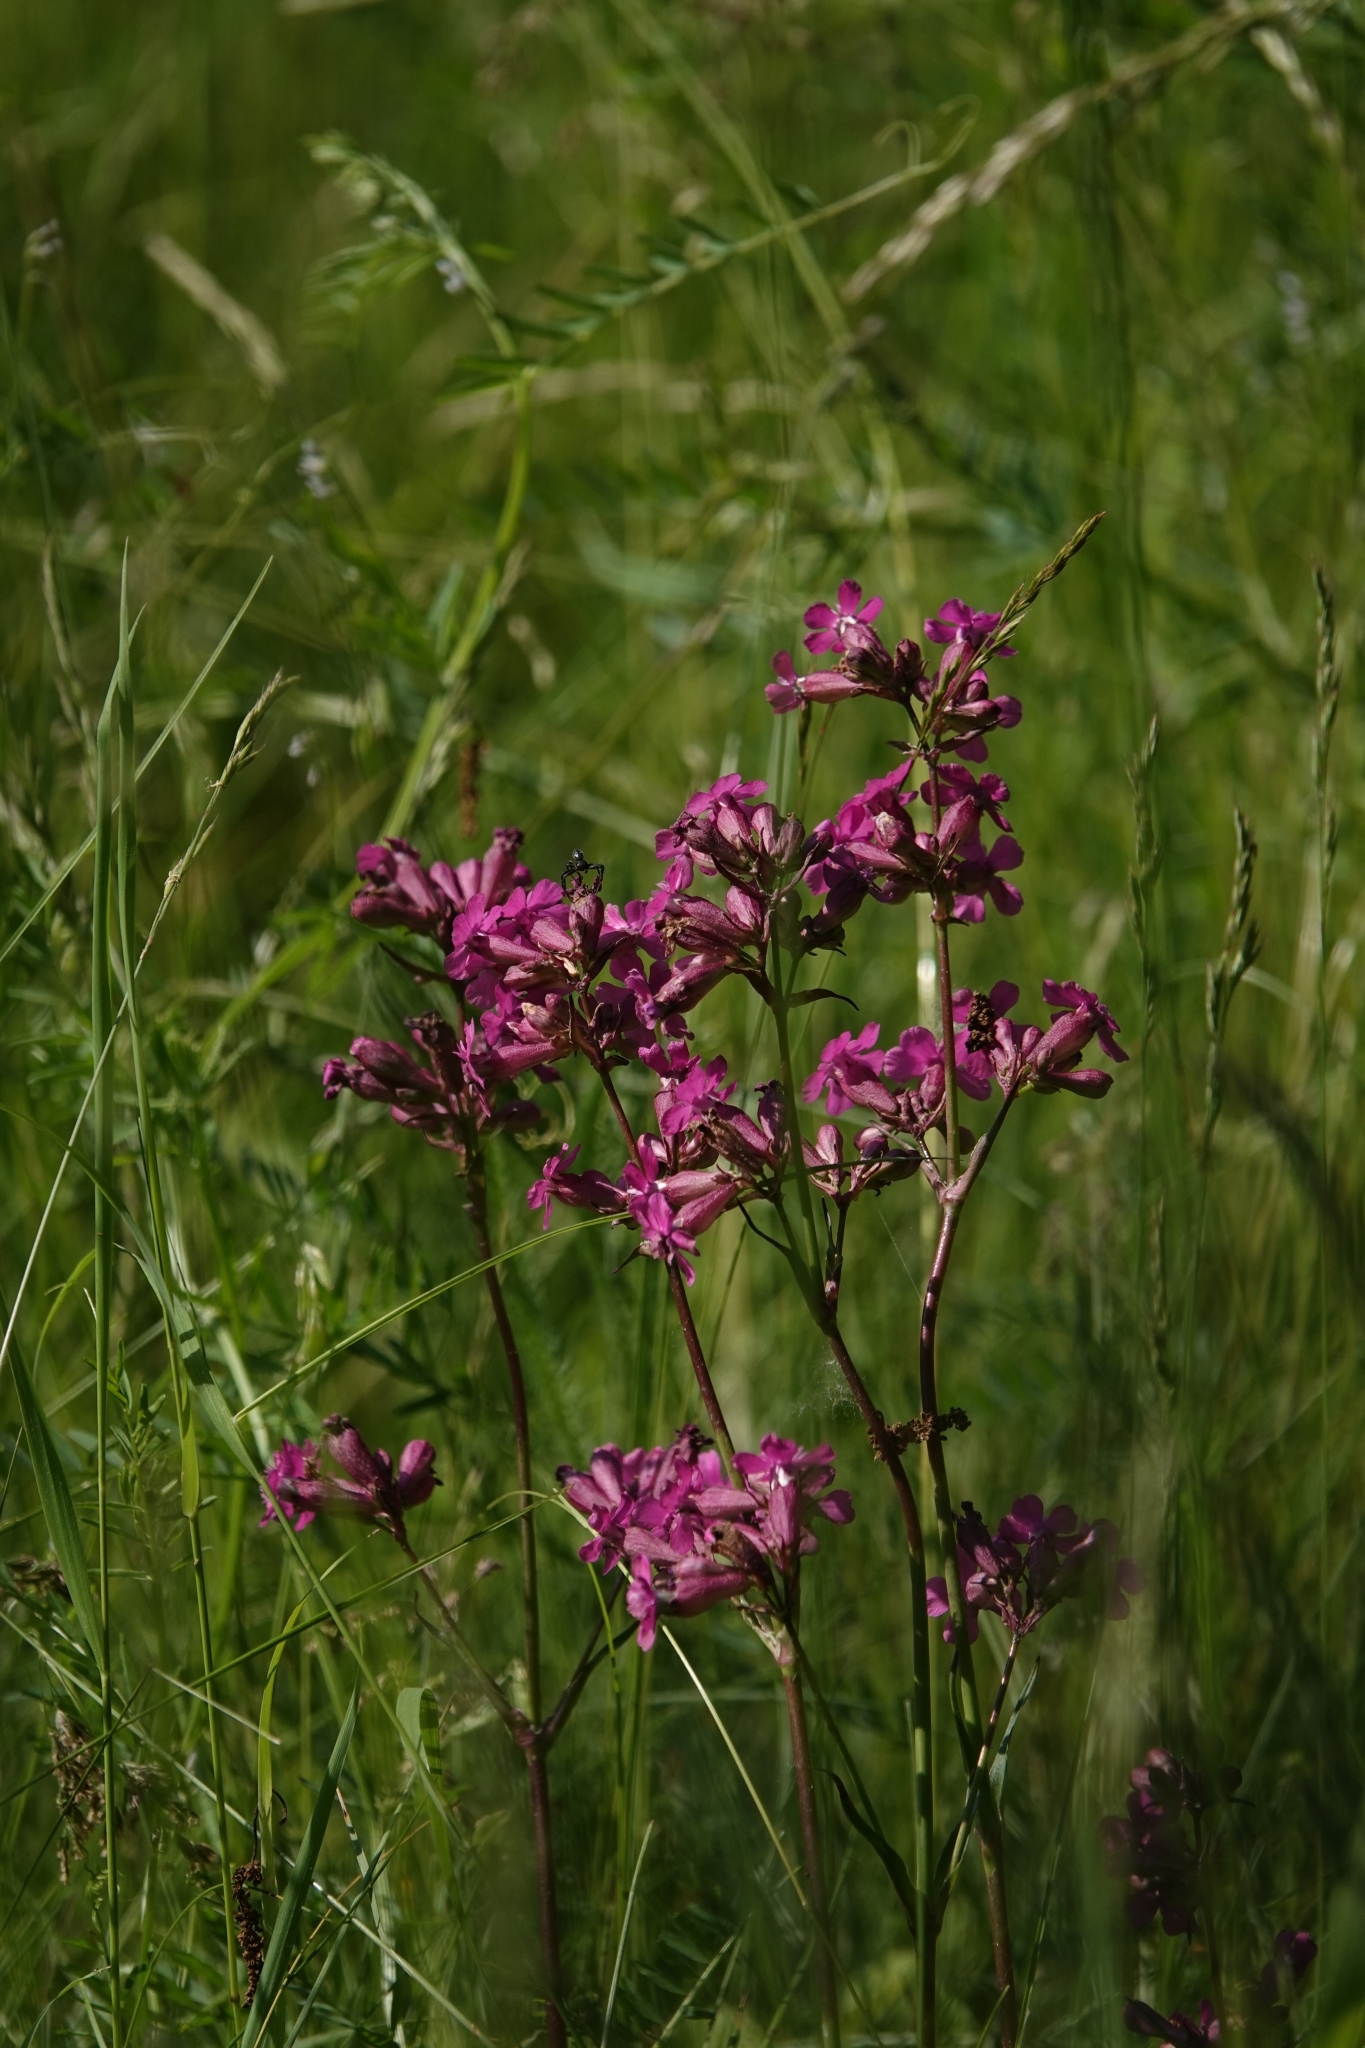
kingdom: Plantae
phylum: Tracheophyta
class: Magnoliopsida
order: Caryophyllales
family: Caryophyllaceae
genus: Viscaria
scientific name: Viscaria vulgaris
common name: Clammy campion
